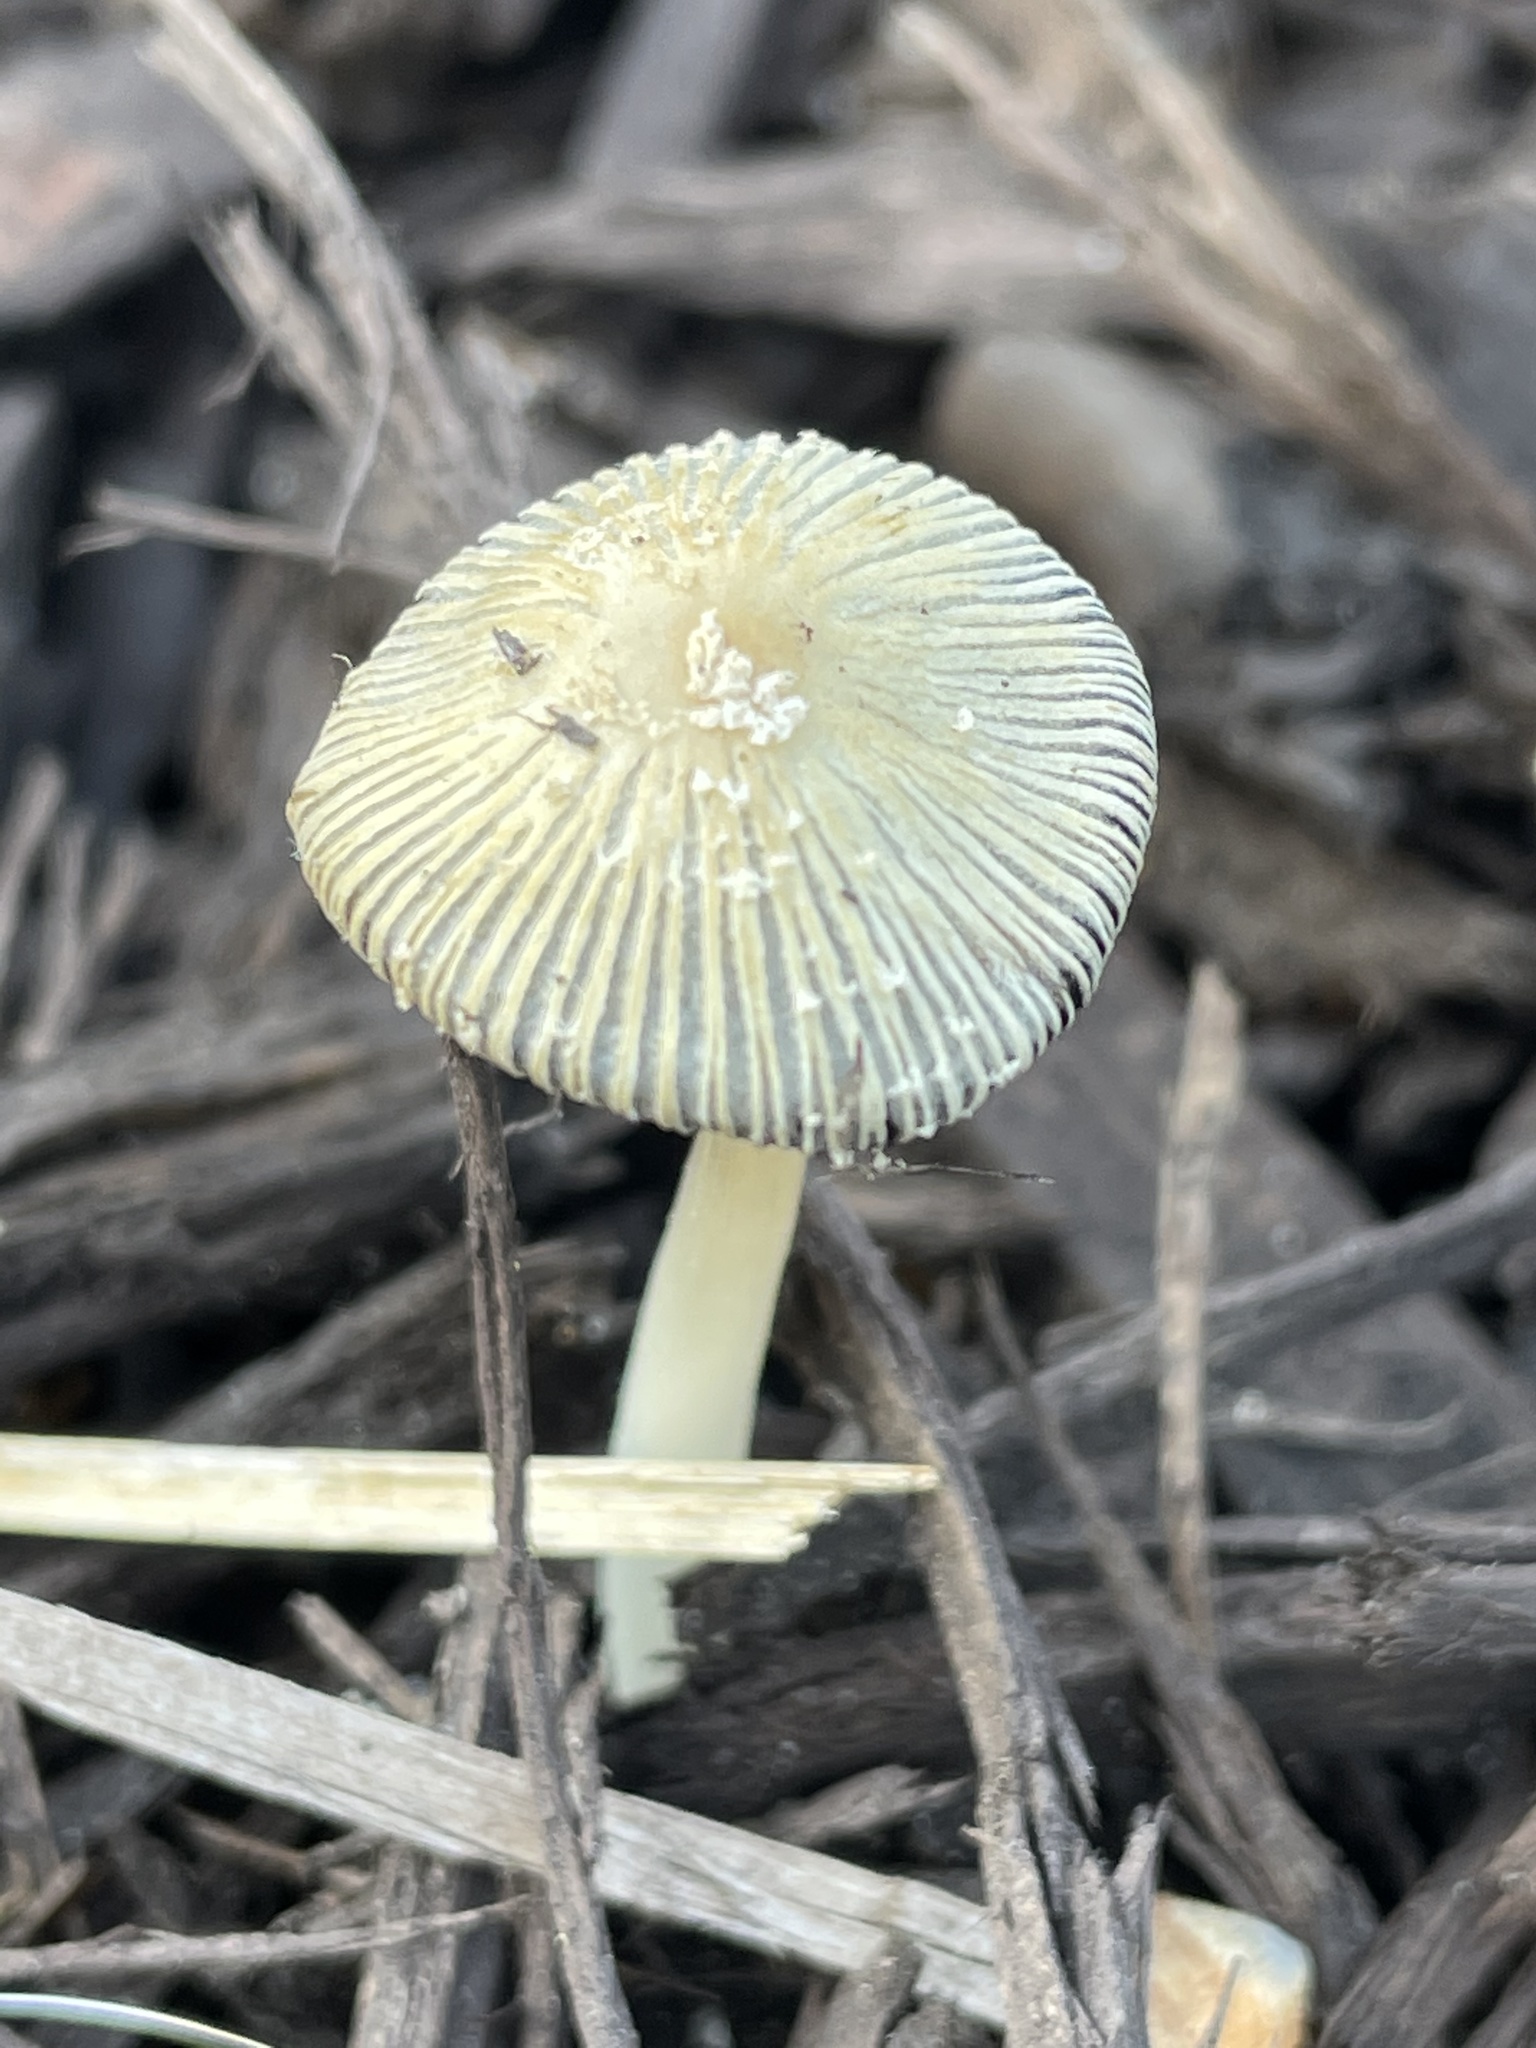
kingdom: Fungi
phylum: Basidiomycota
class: Agaricomycetes
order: Agaricales
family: Psathyrellaceae
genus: Coprinellus
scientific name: Coprinellus flocculosus
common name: Flocculose inkcap
